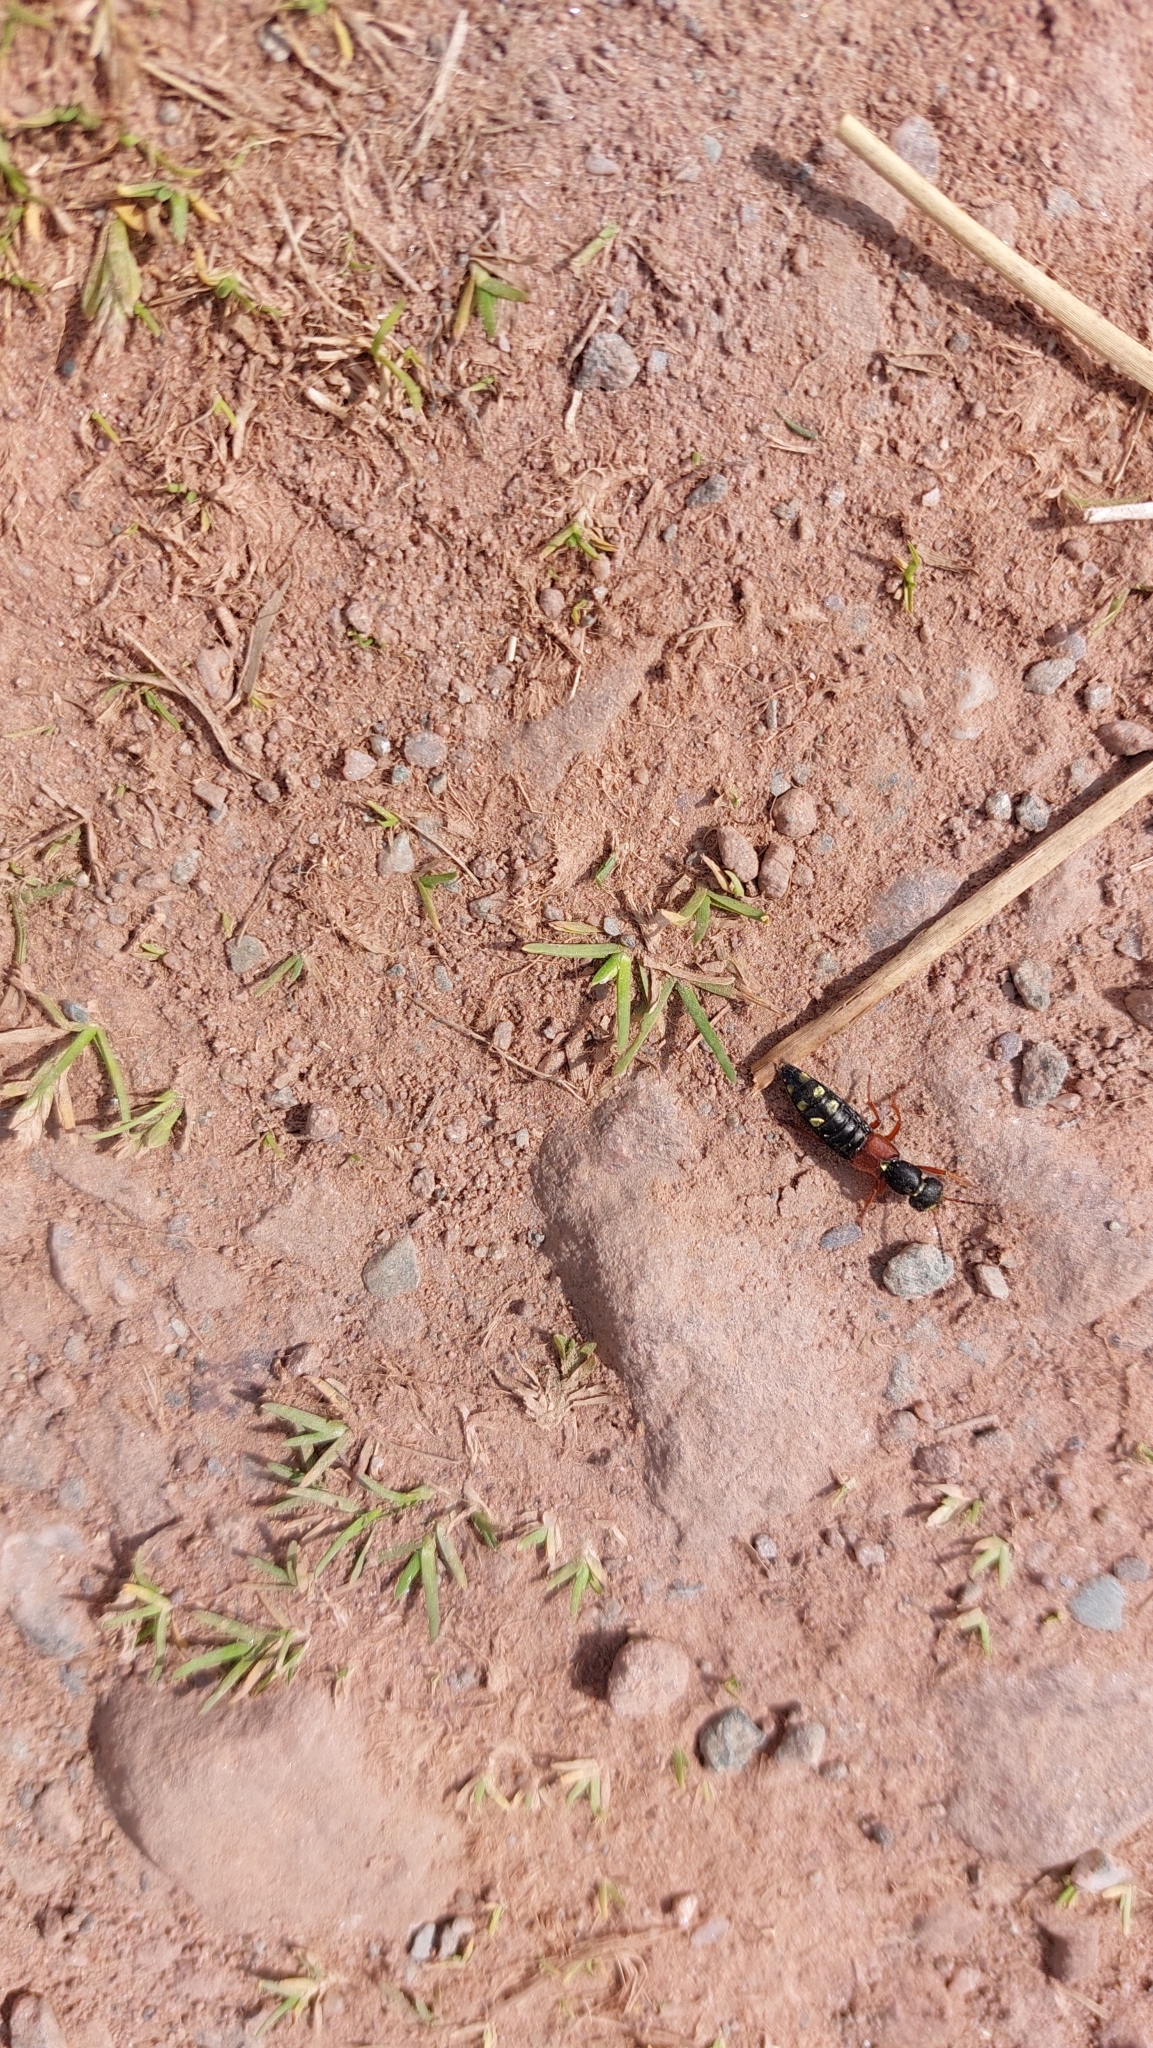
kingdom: Animalia
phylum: Arthropoda
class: Insecta
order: Coleoptera
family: Staphylinidae
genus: Staphylinus
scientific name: Staphylinus erythropterus
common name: Staph beetle
